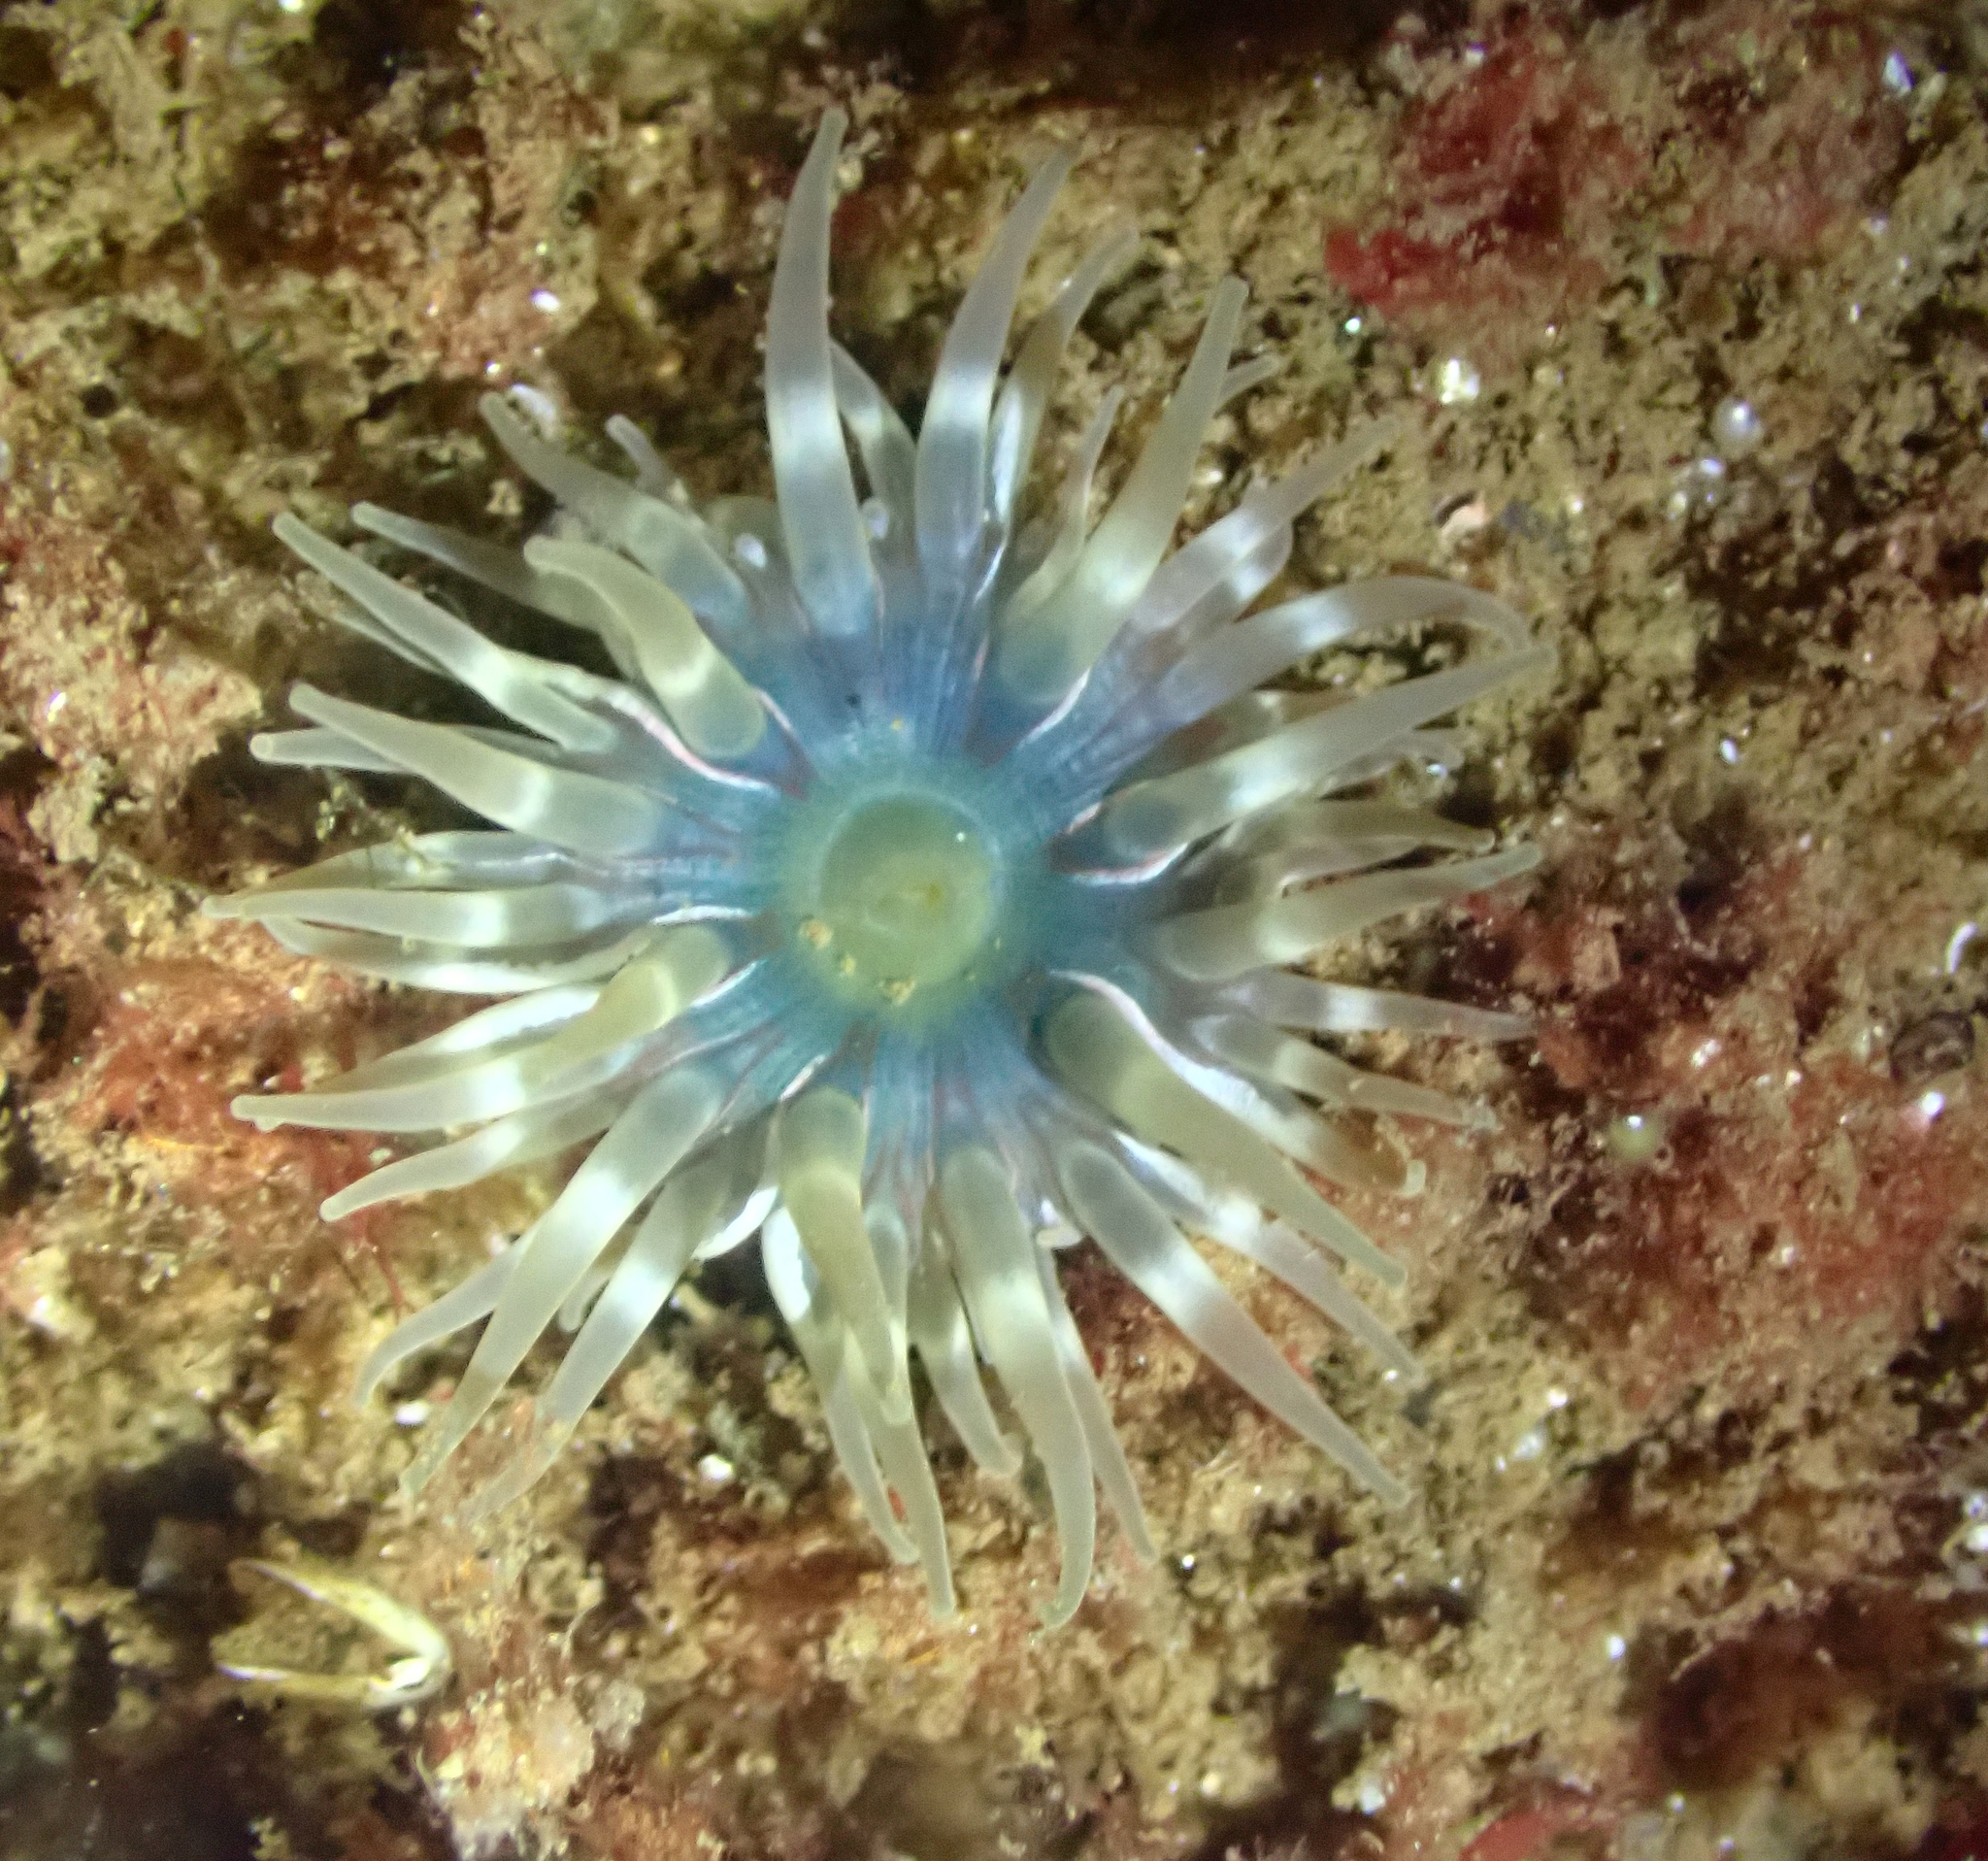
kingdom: Animalia
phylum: Cnidaria
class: Anthozoa
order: Actiniaria
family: Actiniidae
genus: Urticina
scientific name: Urticina felina
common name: Dahlia anemone
